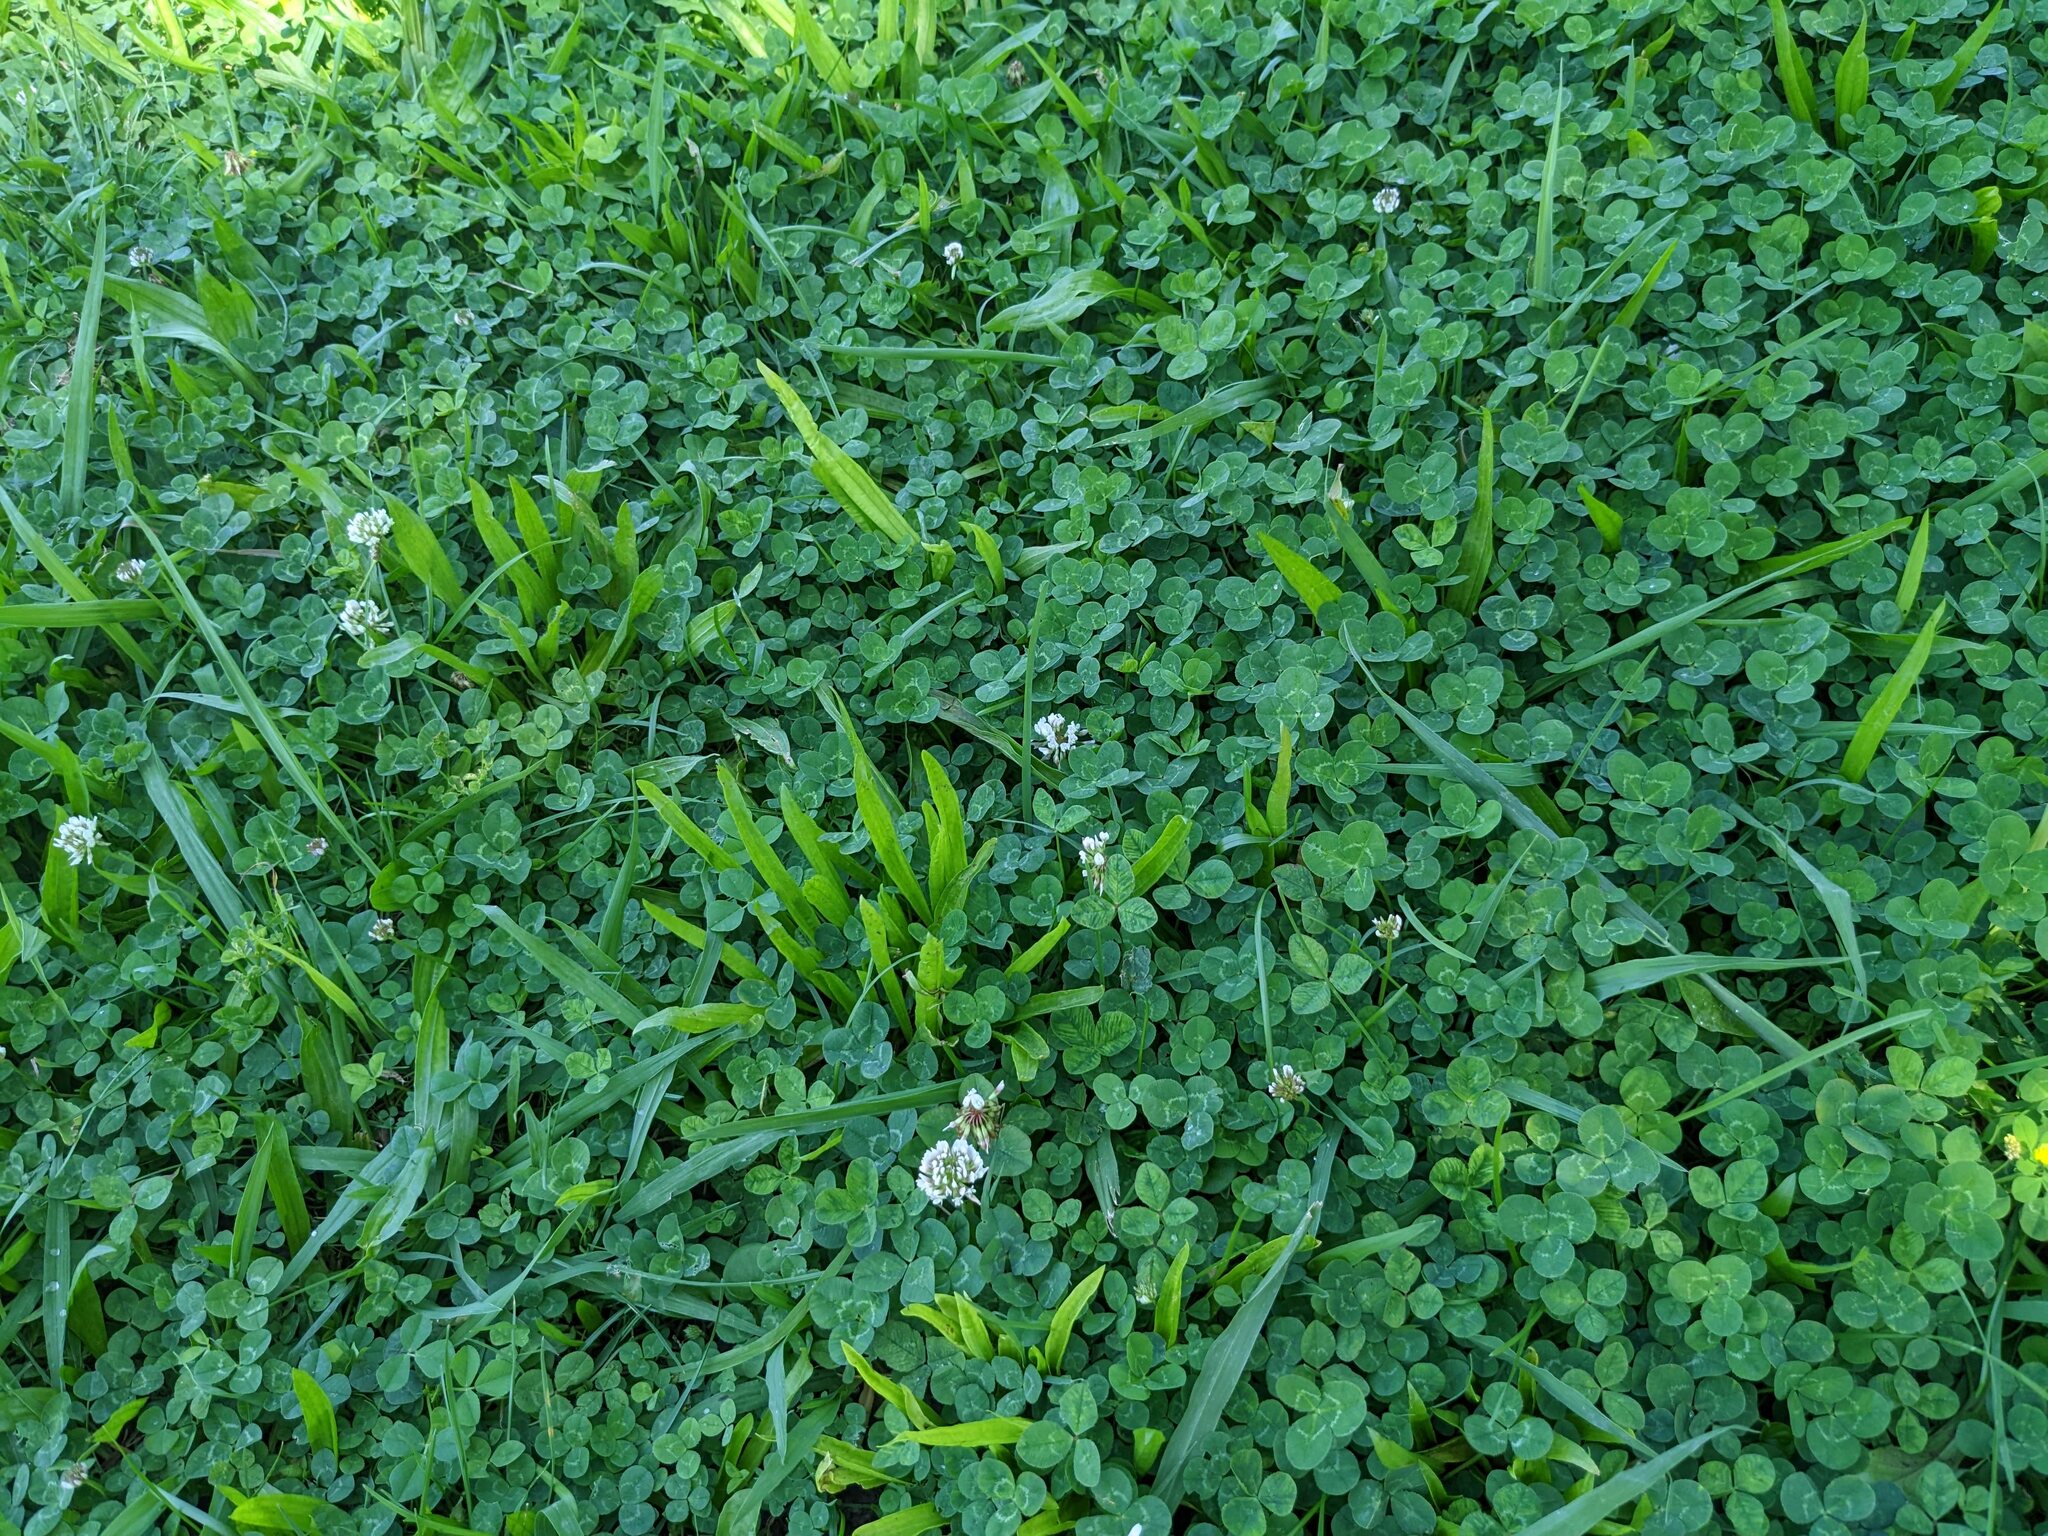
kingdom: Plantae
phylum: Tracheophyta
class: Magnoliopsida
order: Fabales
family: Fabaceae
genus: Trifolium
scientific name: Trifolium repens
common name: White clover
